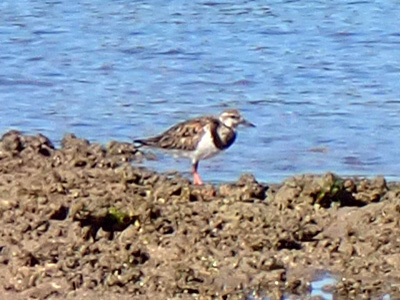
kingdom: Animalia
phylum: Chordata
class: Aves
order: Charadriiformes
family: Scolopacidae
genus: Arenaria
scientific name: Arenaria interpres
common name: Ruddy turnstone
